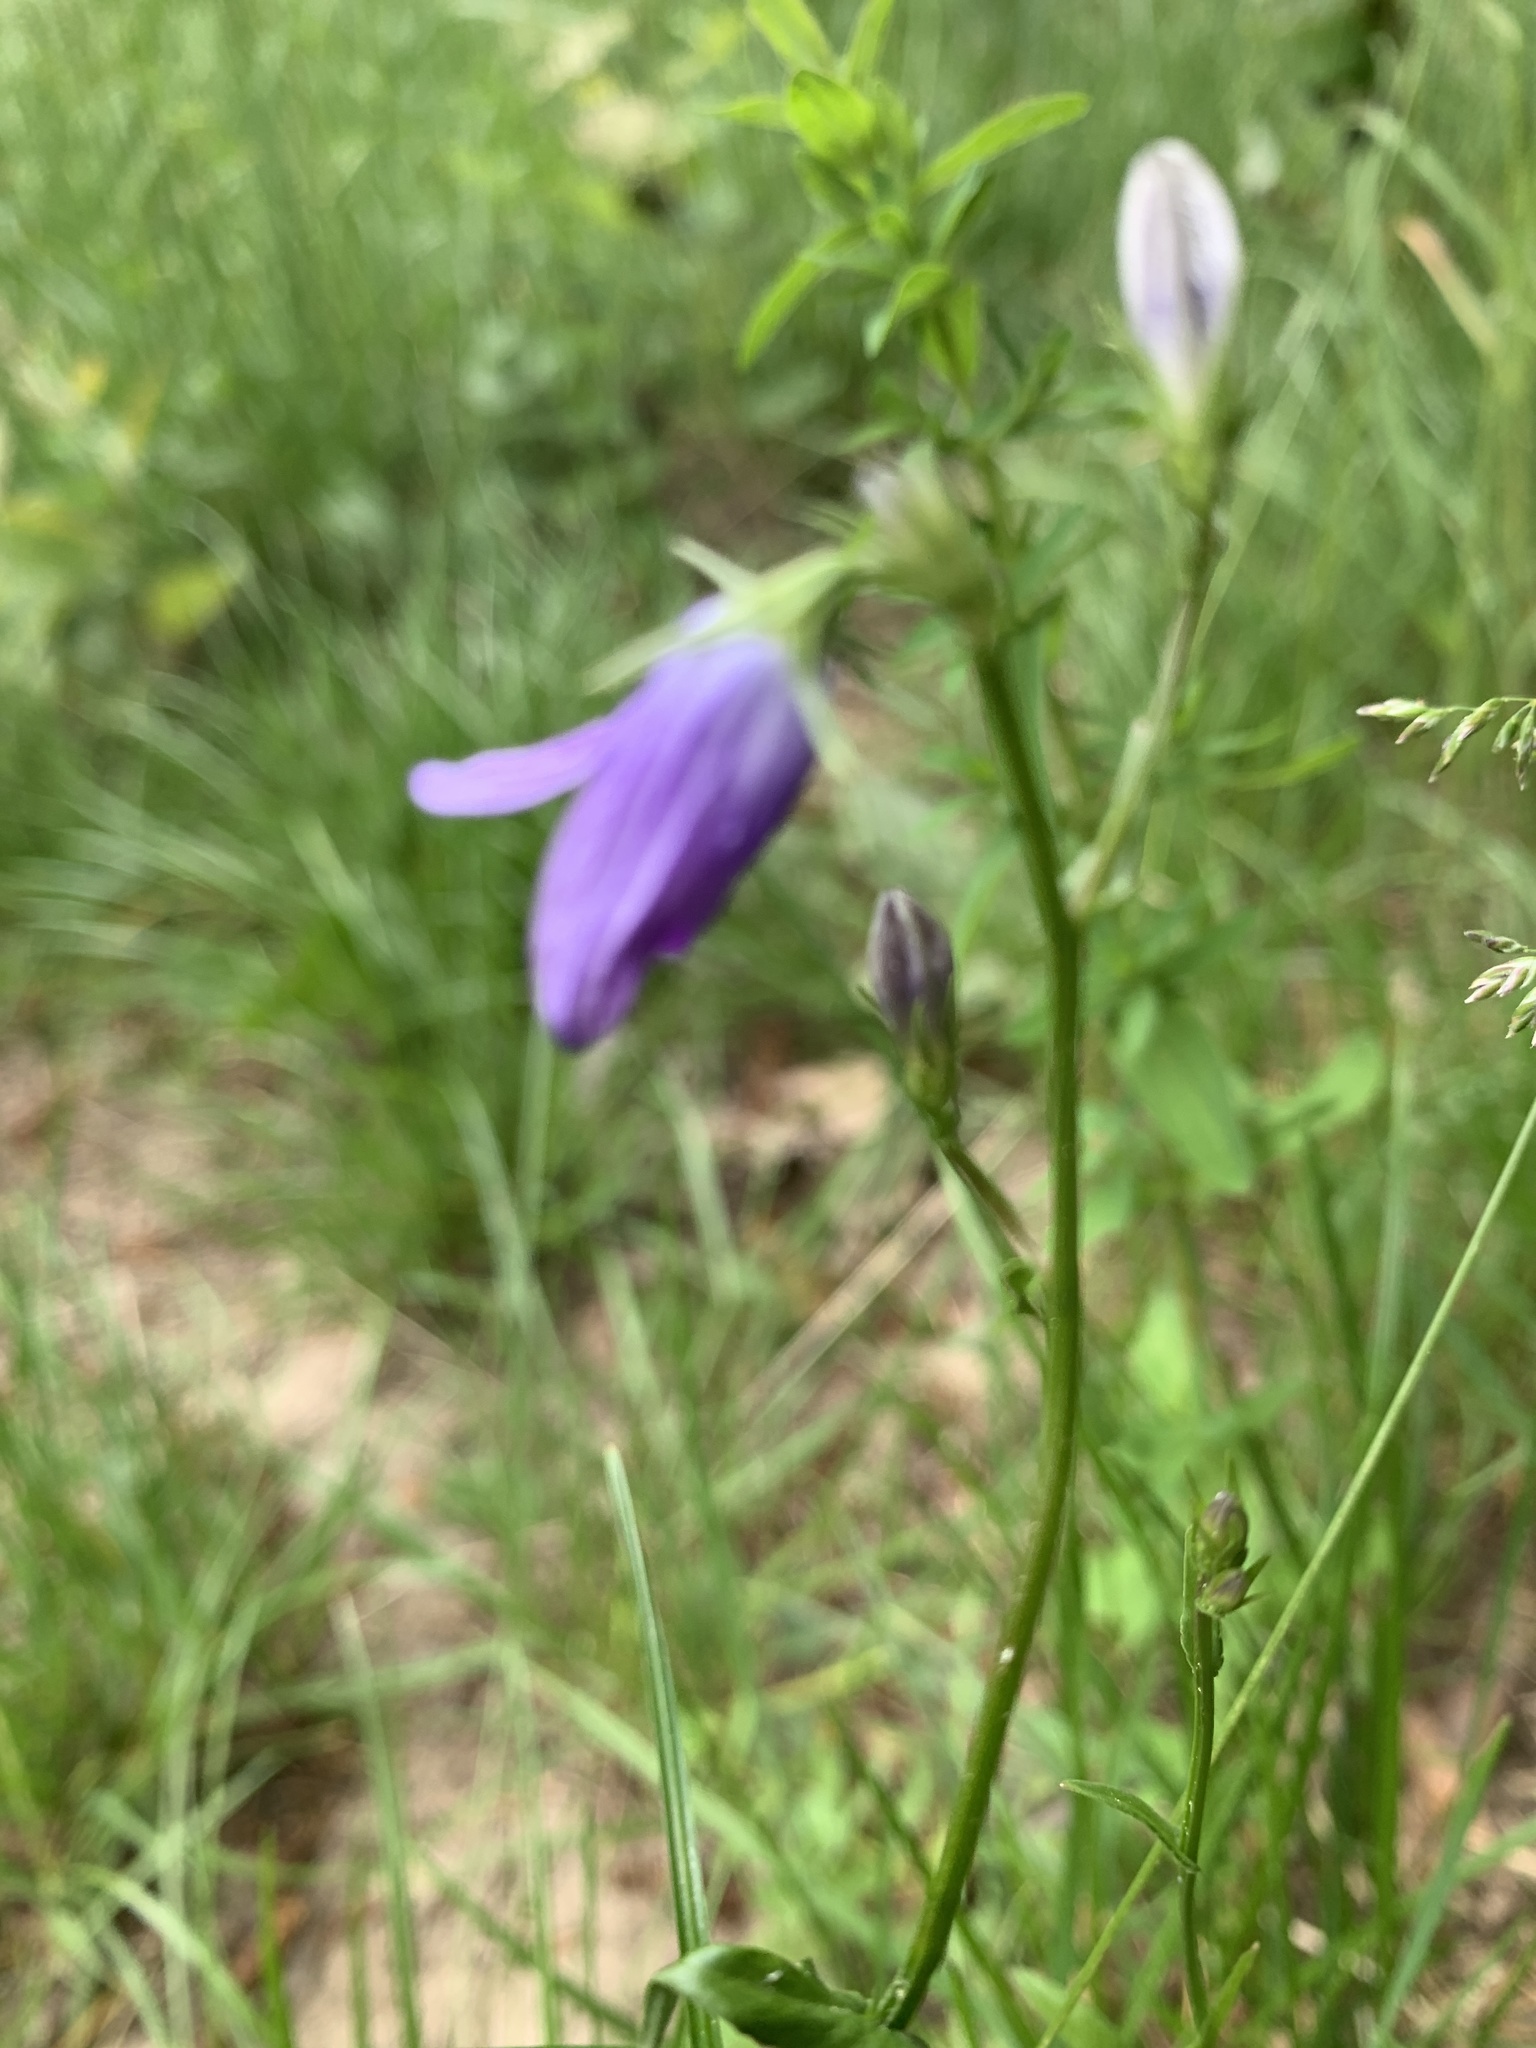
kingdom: Plantae
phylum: Tracheophyta
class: Magnoliopsida
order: Asterales
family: Campanulaceae
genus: Campanula
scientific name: Campanula patula
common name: Spreading bellflower
